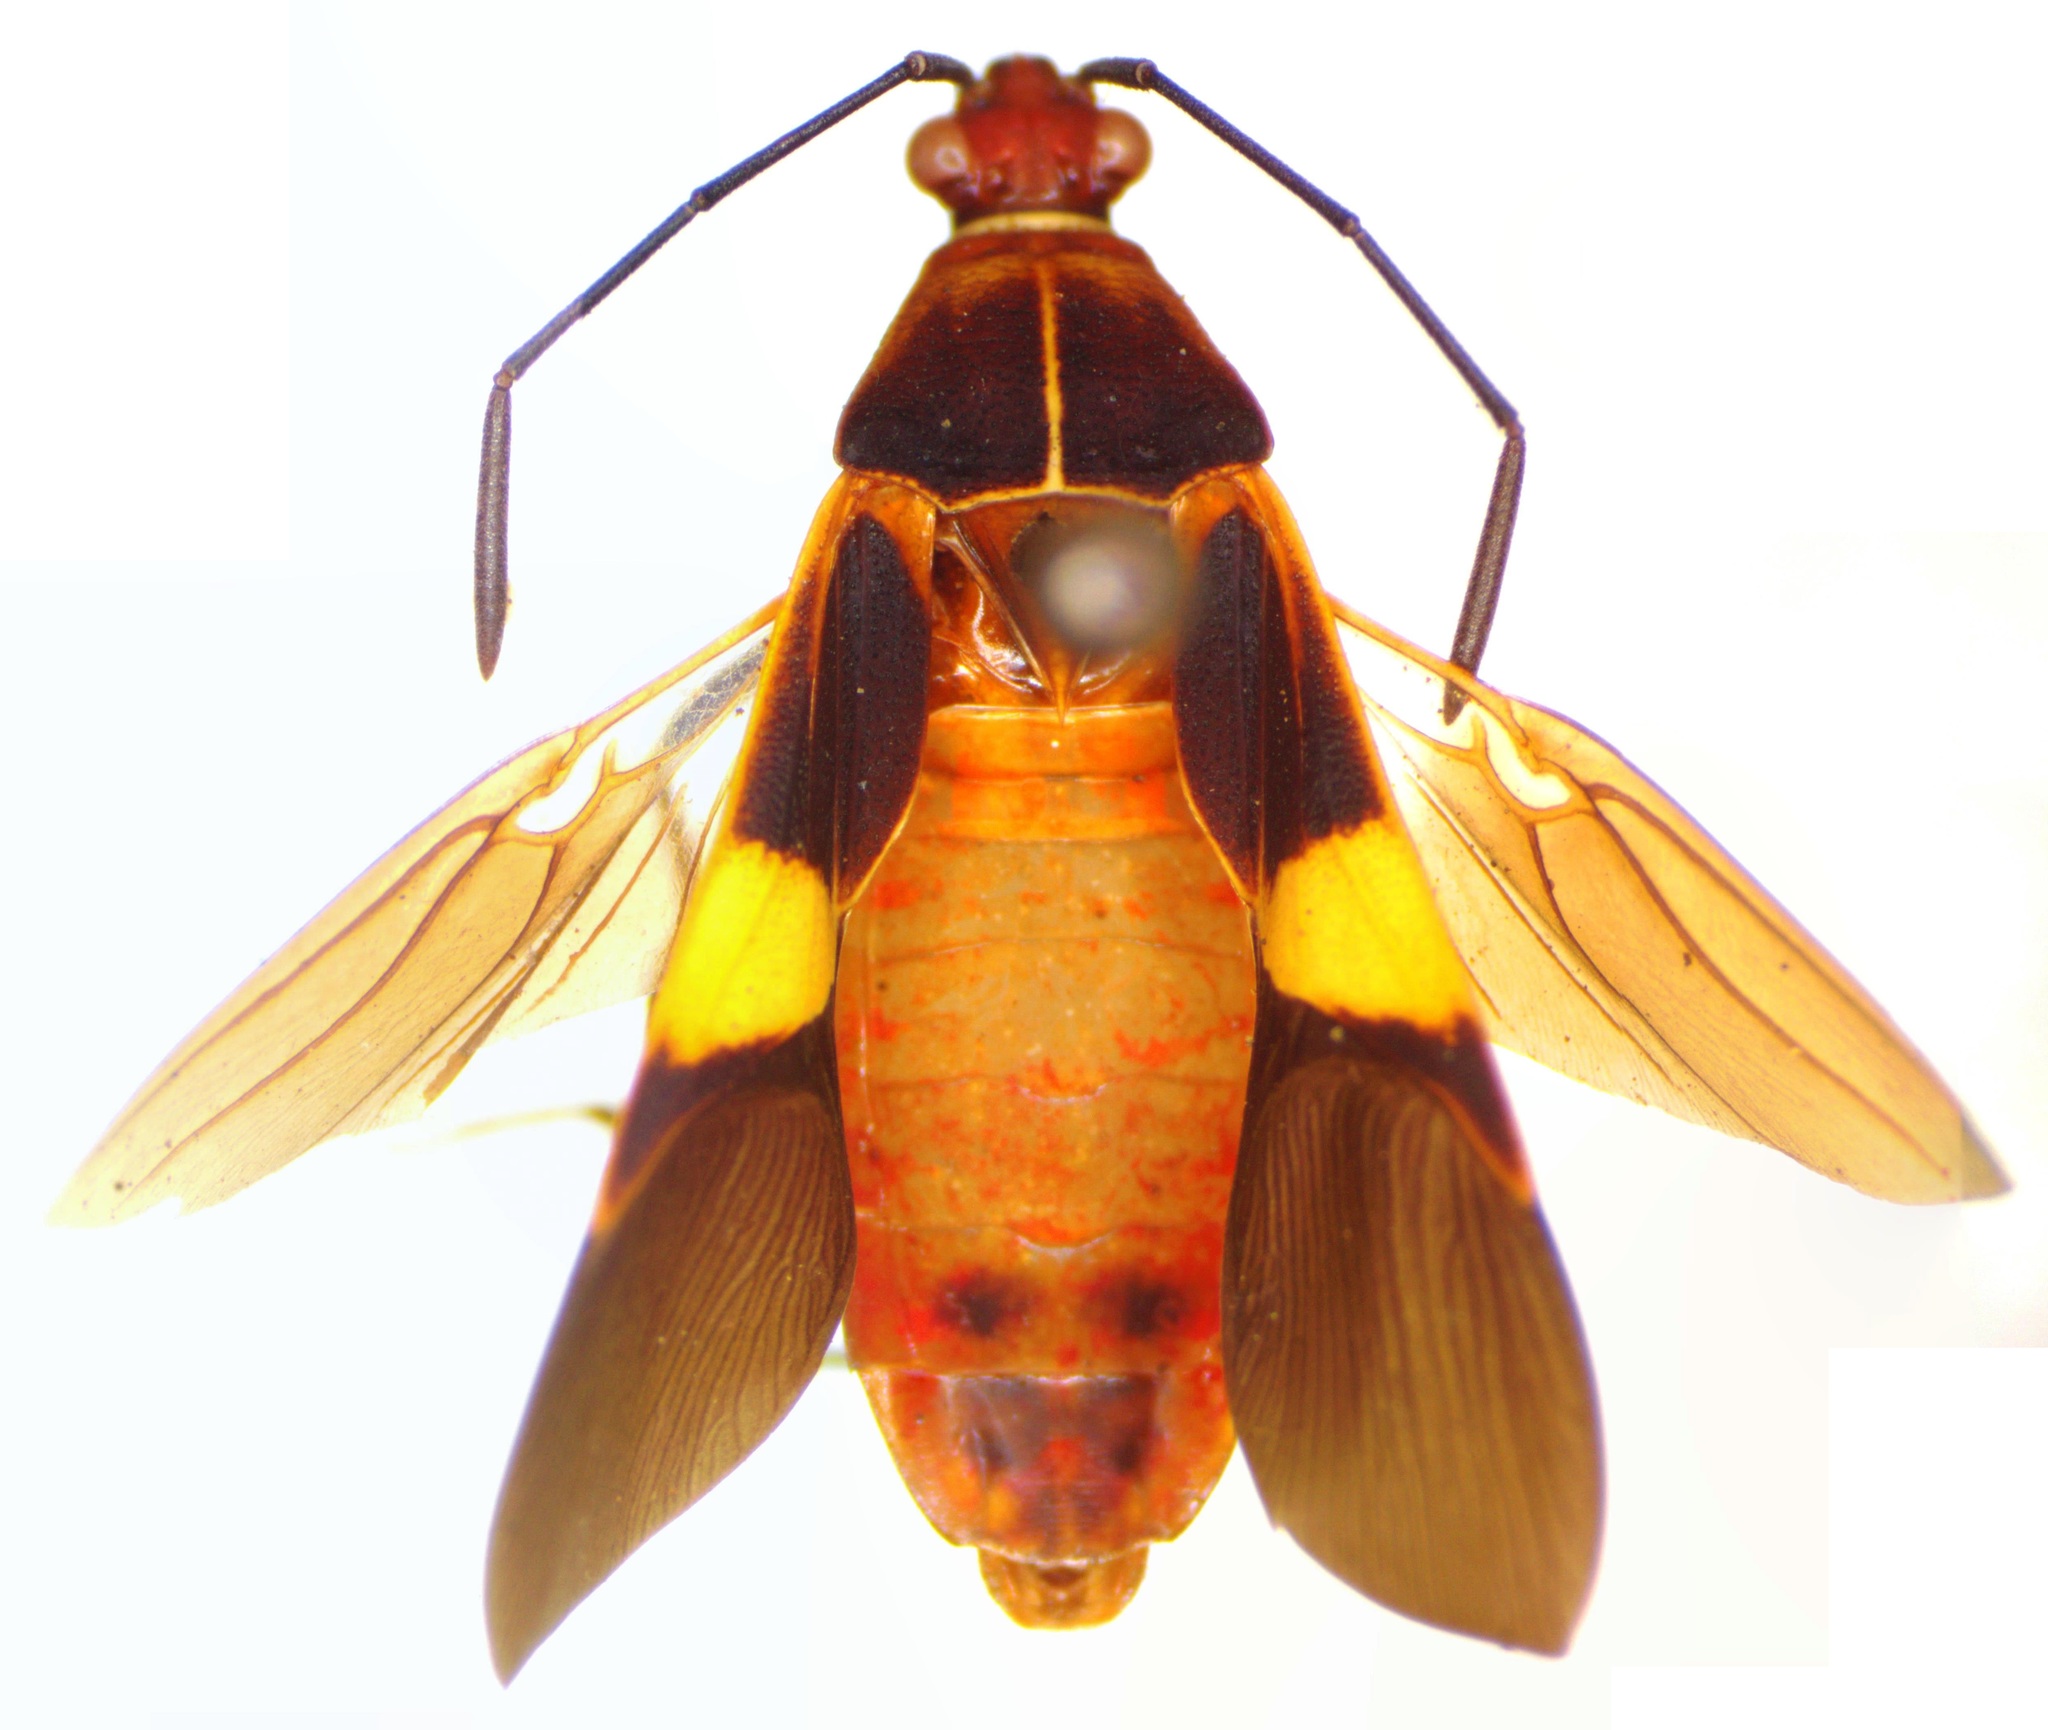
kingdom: Animalia
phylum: Arthropoda
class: Insecta
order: Hemiptera
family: Coreidae
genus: Hypselonotus
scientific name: Hypselonotus interruptus
